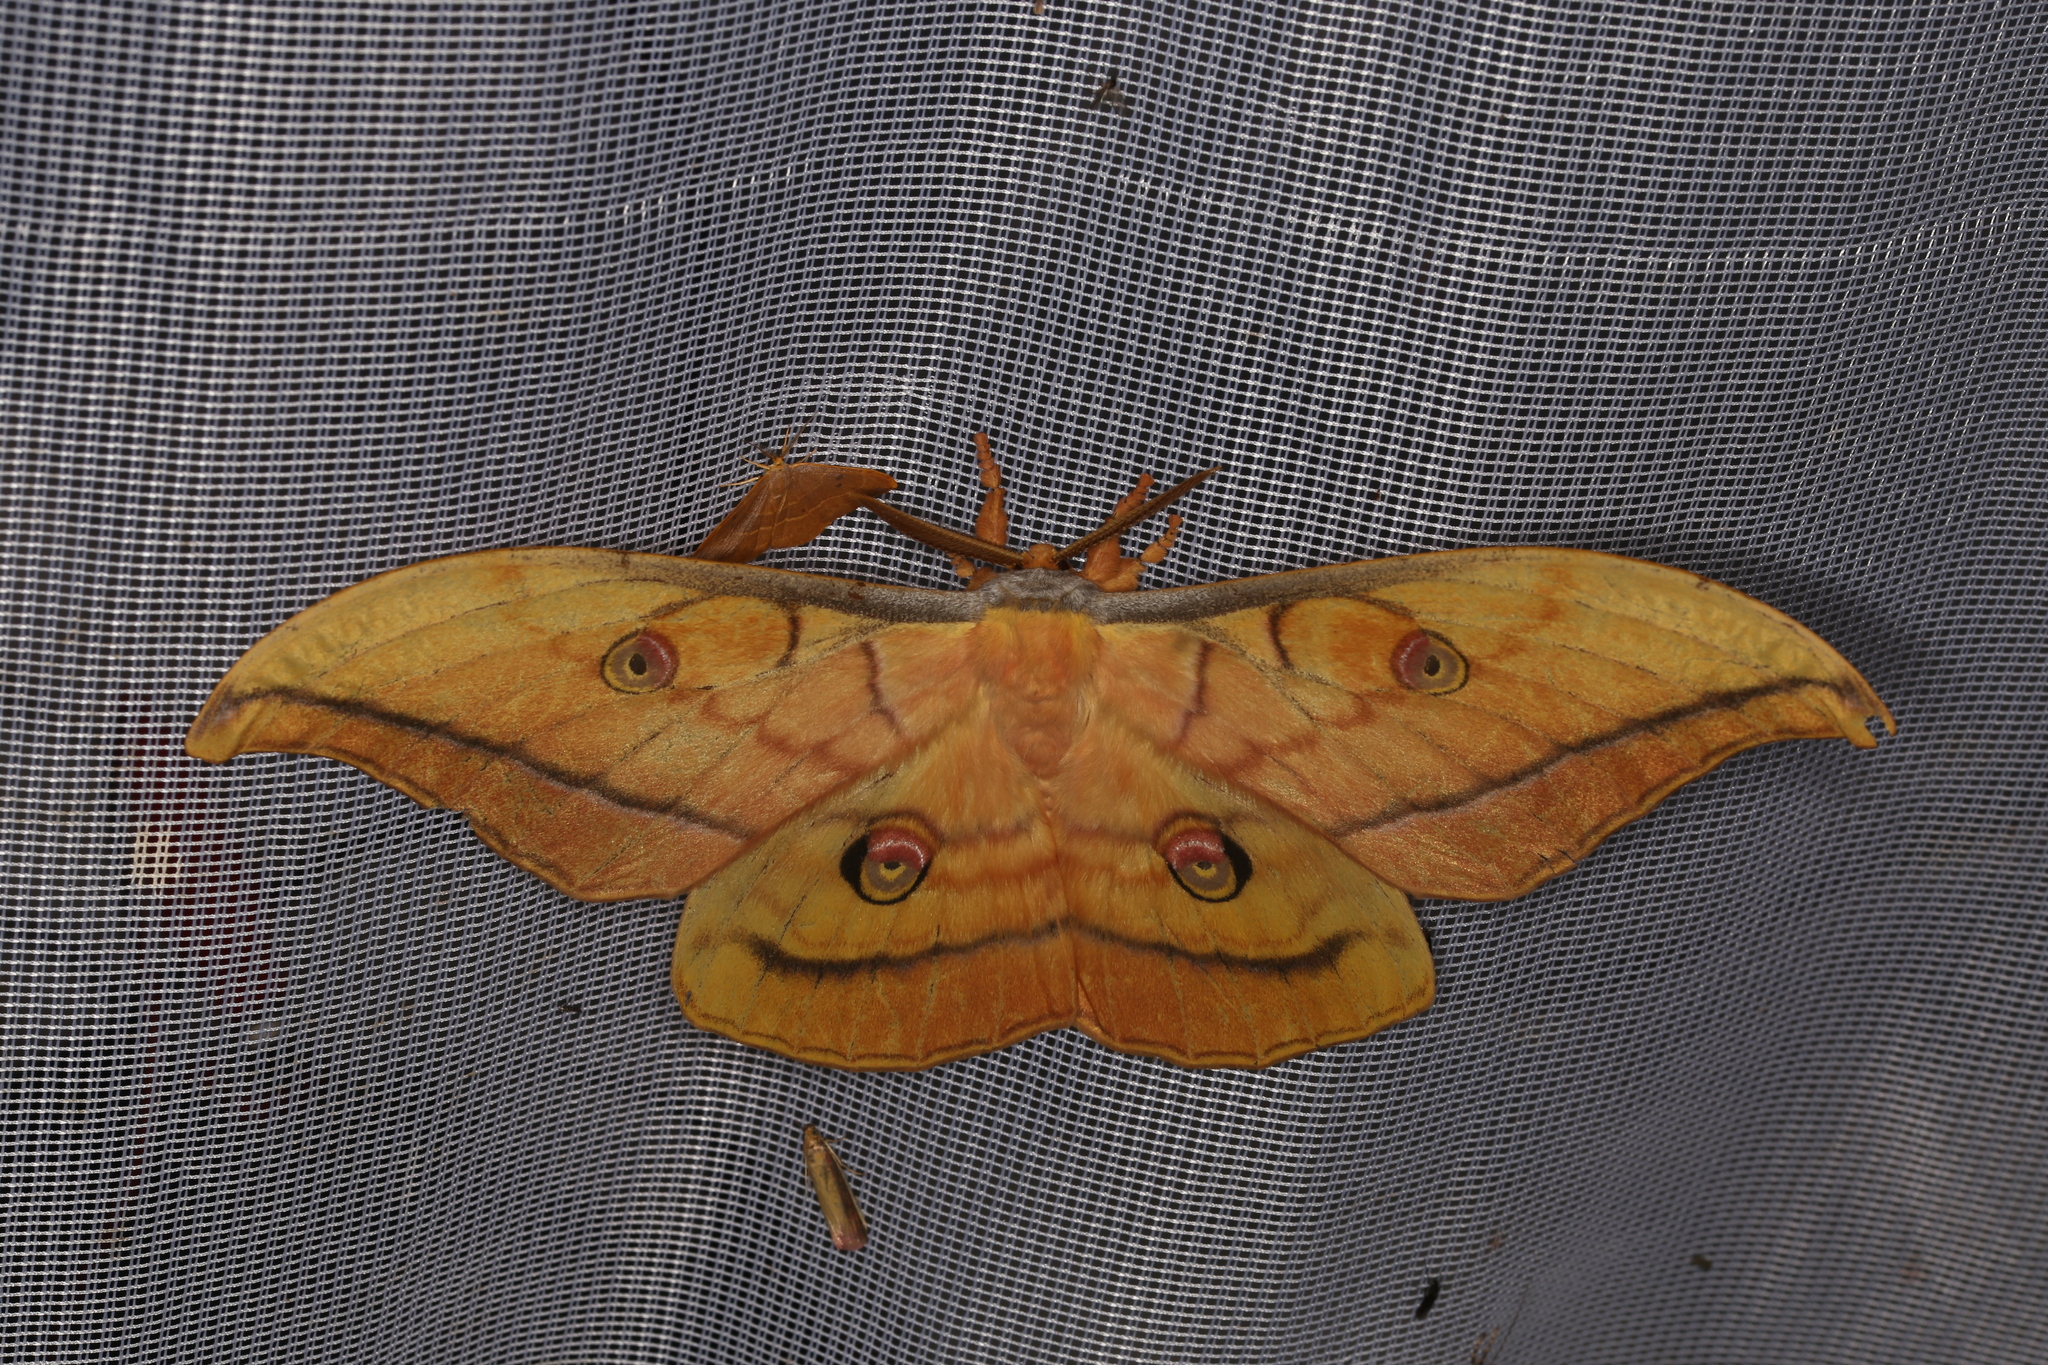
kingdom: Animalia
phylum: Arthropoda
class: Insecta
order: Lepidoptera
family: Saturniidae
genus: Antheraea
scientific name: Antheraea yamamai
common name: Japanese oak silk moth
